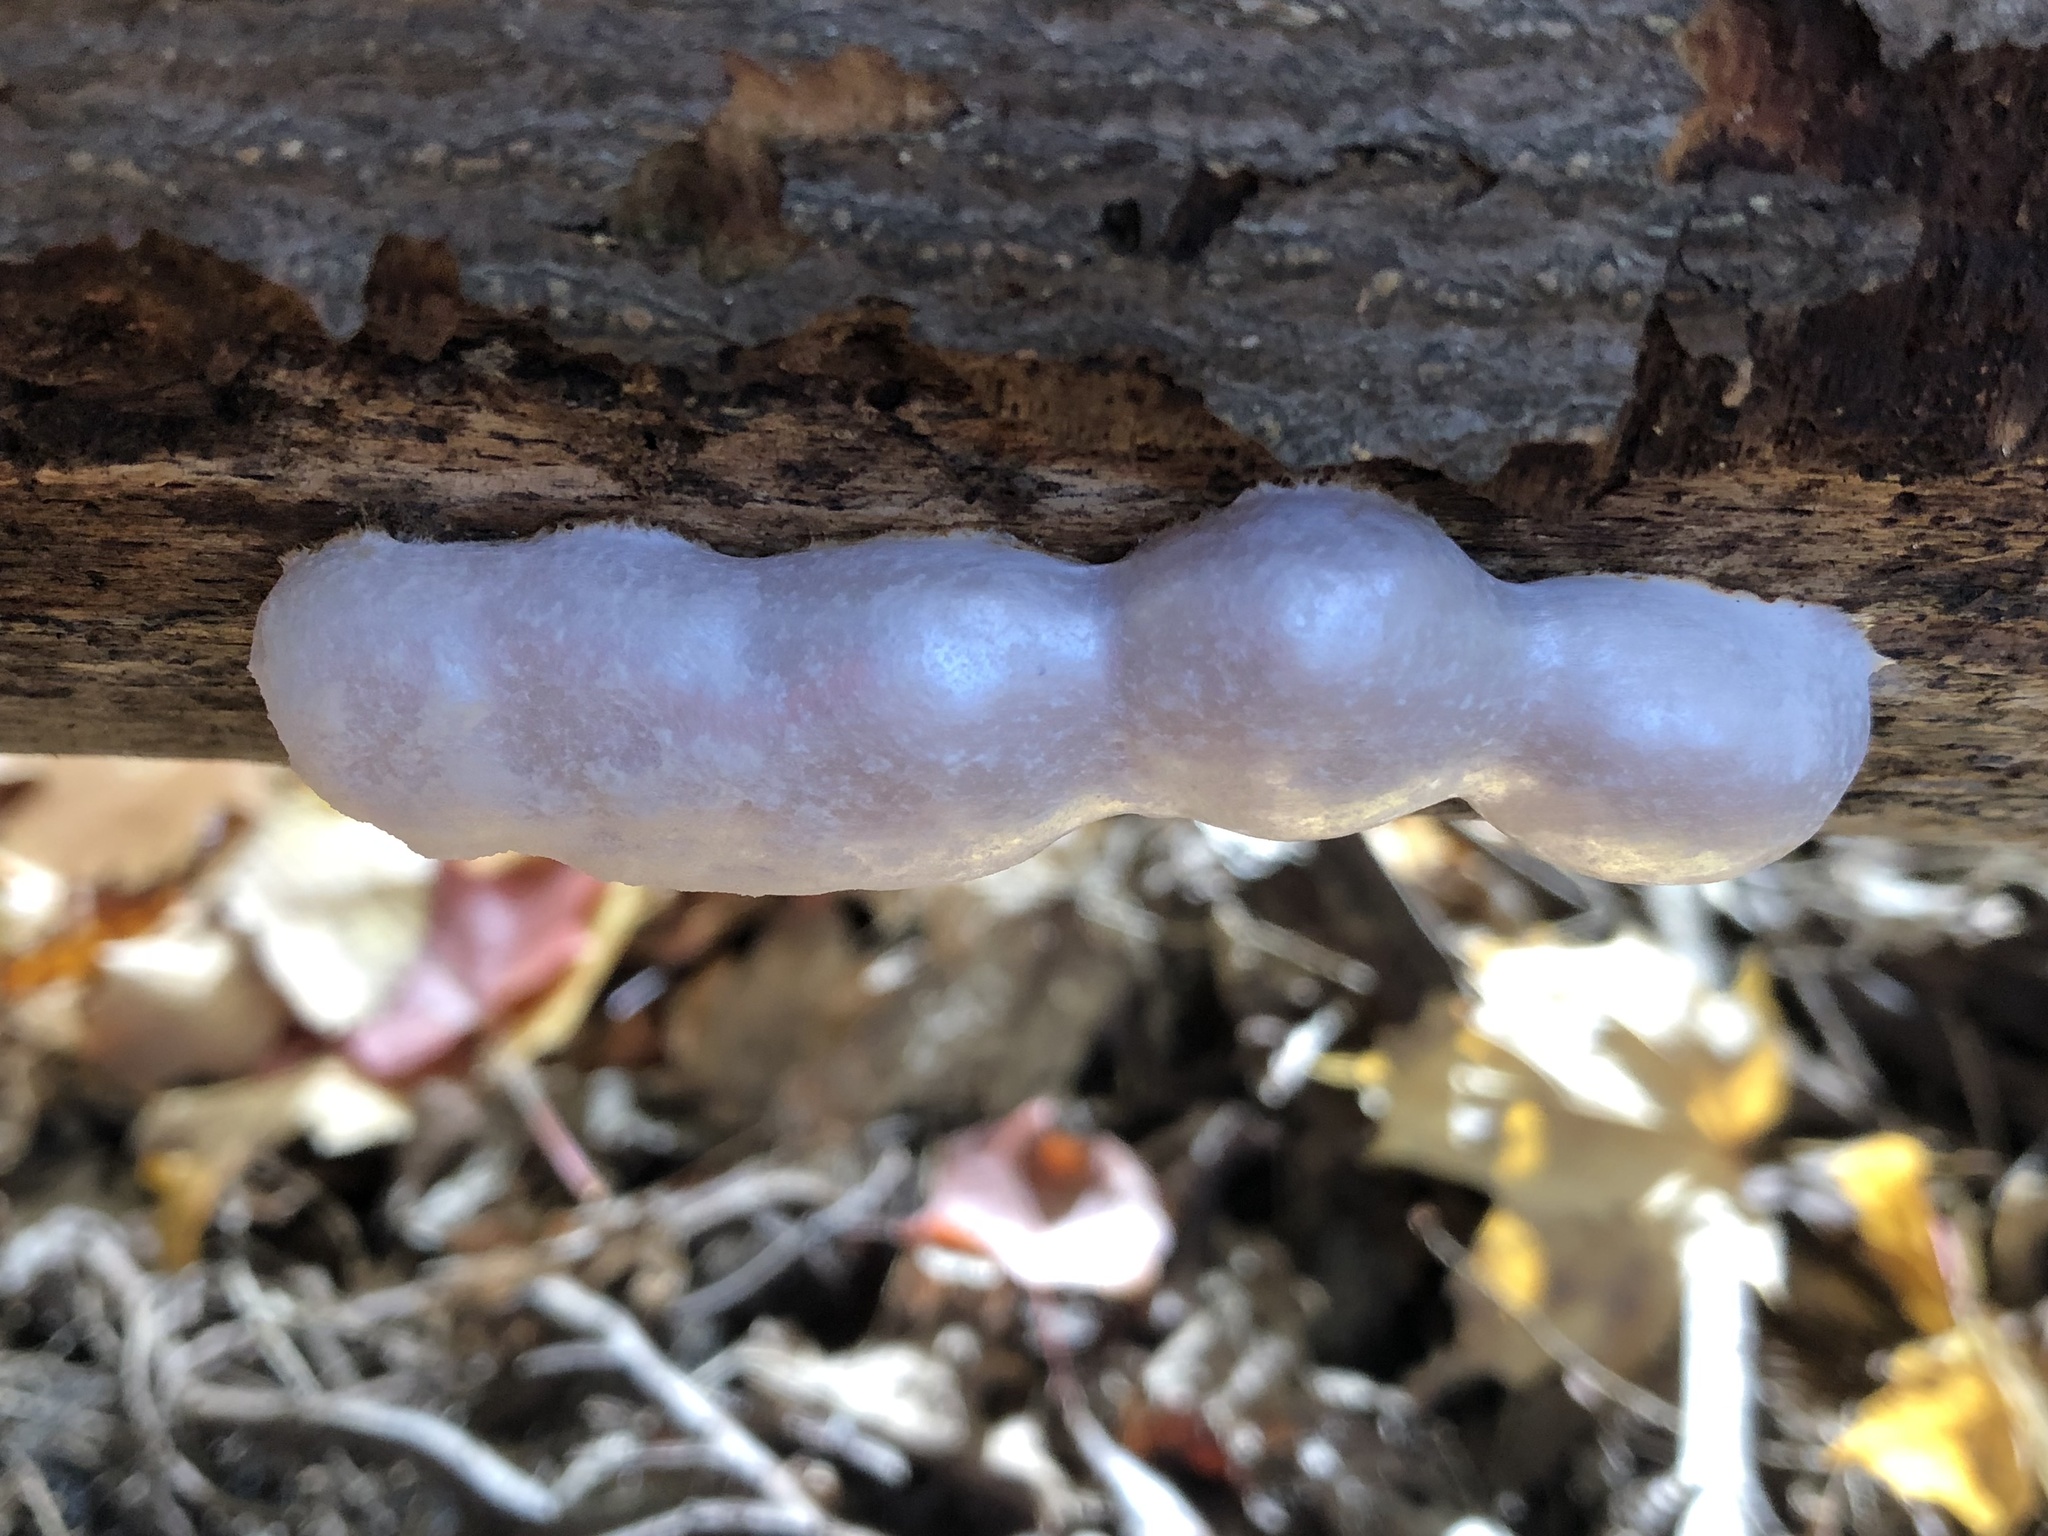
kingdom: Protozoa
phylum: Mycetozoa
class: Myxomycetes
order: Cribrariales
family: Tubiferaceae
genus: Reticularia
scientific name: Reticularia lycoperdon
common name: False puffball
